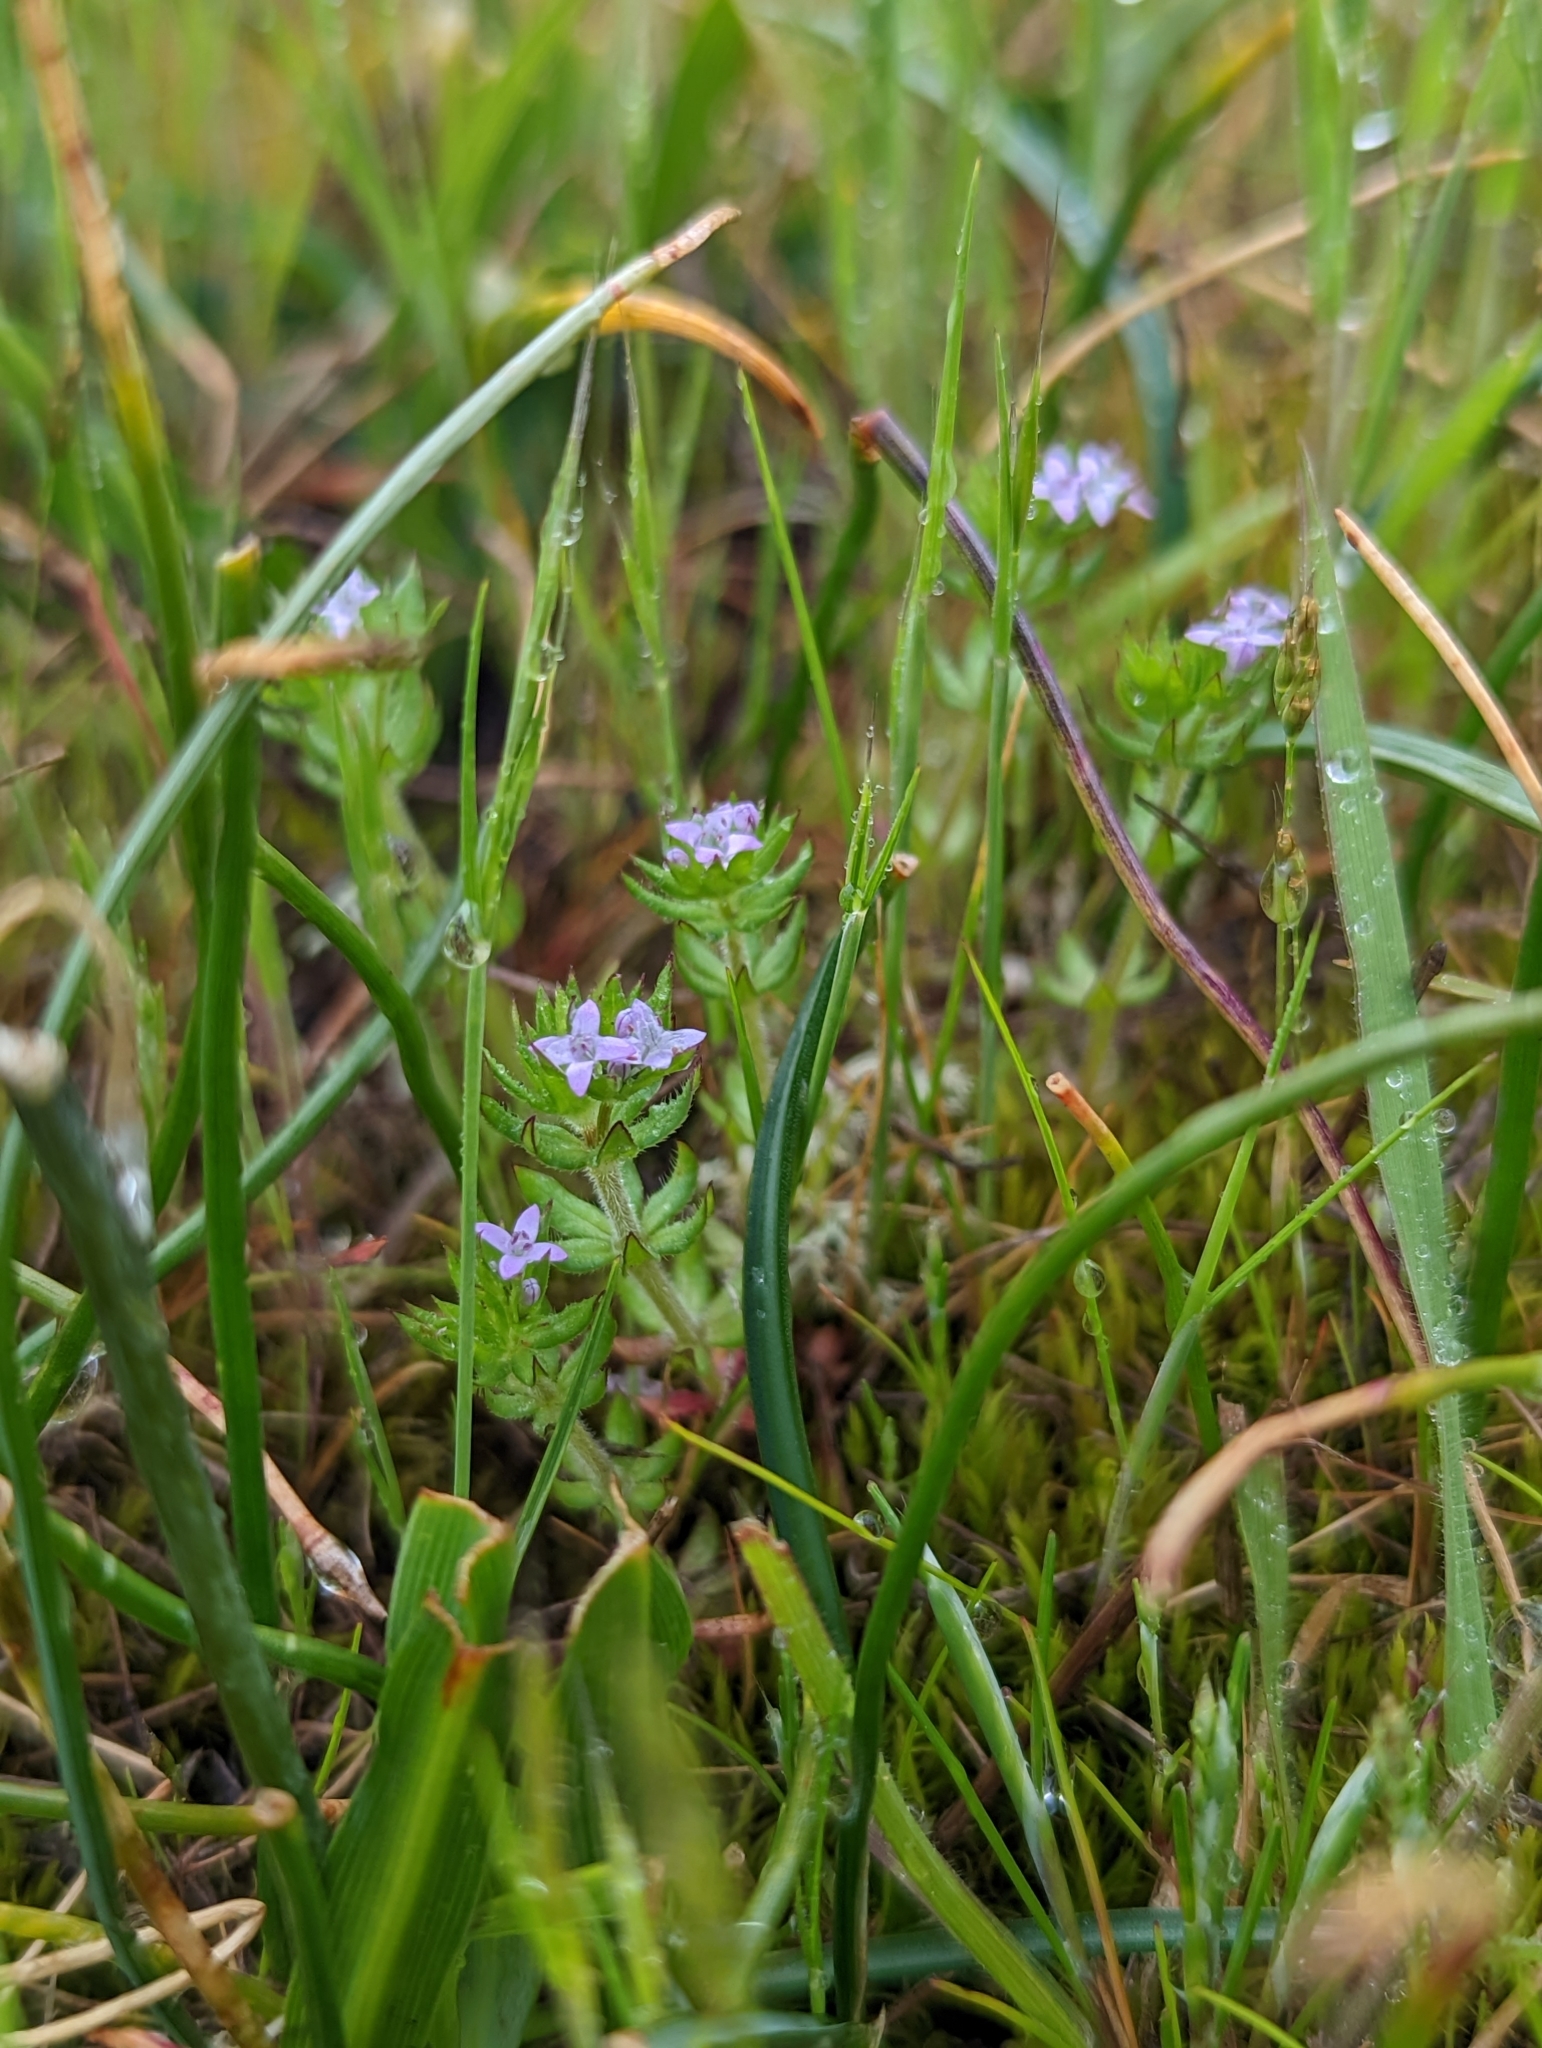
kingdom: Plantae
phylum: Tracheophyta
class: Magnoliopsida
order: Gentianales
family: Rubiaceae
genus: Sherardia
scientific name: Sherardia arvensis
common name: Field madder
